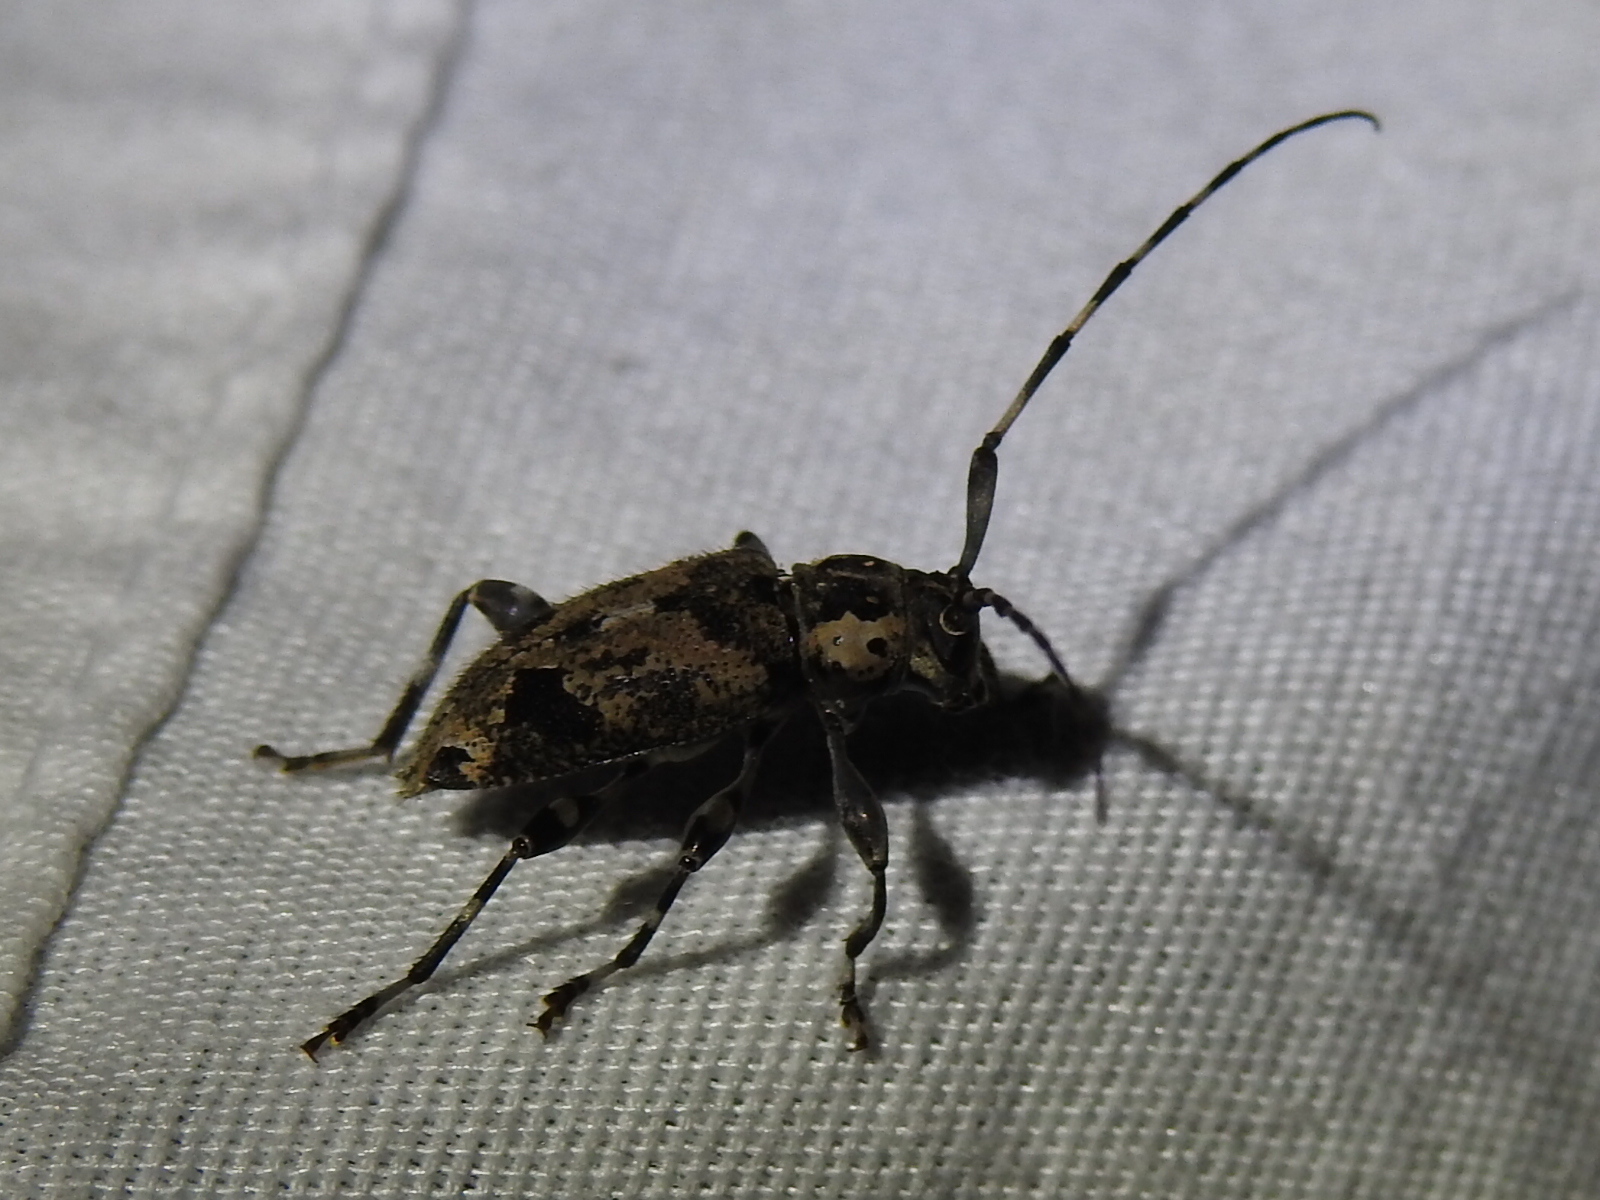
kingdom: Animalia
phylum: Arthropoda
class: Insecta
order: Coleoptera
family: Cerambycidae
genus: Graphisurus
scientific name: Graphisurus triangulifer
